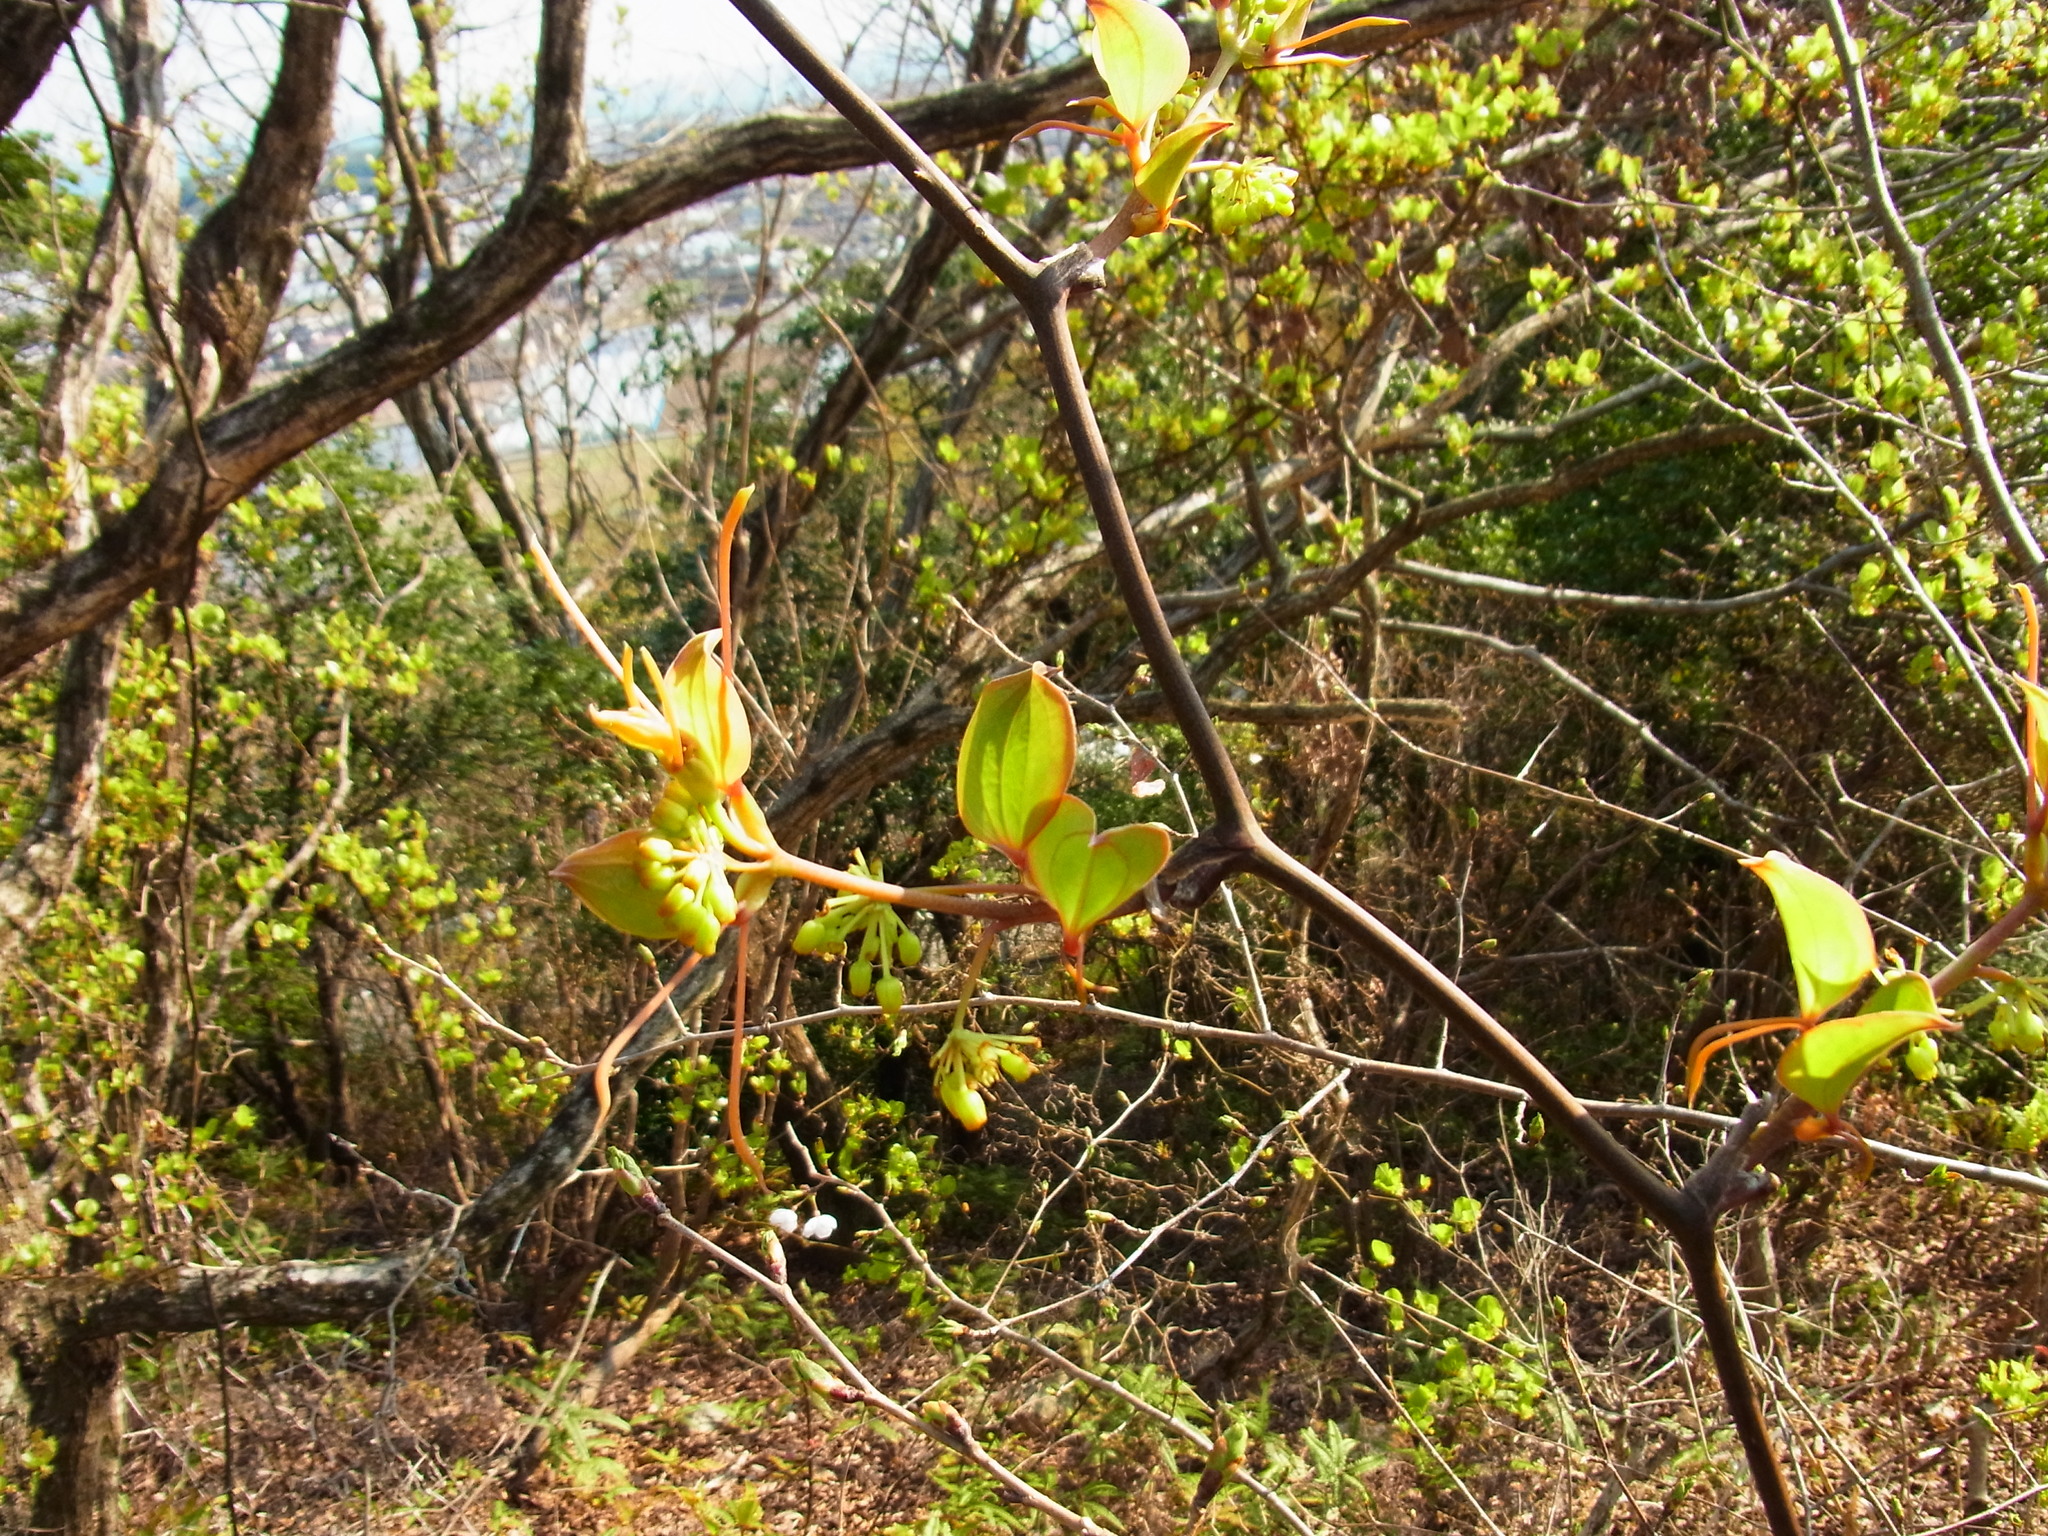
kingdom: Plantae
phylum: Tracheophyta
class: Liliopsida
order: Liliales
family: Smilacaceae
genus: Smilax
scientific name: Smilax china
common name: Chinaroot
